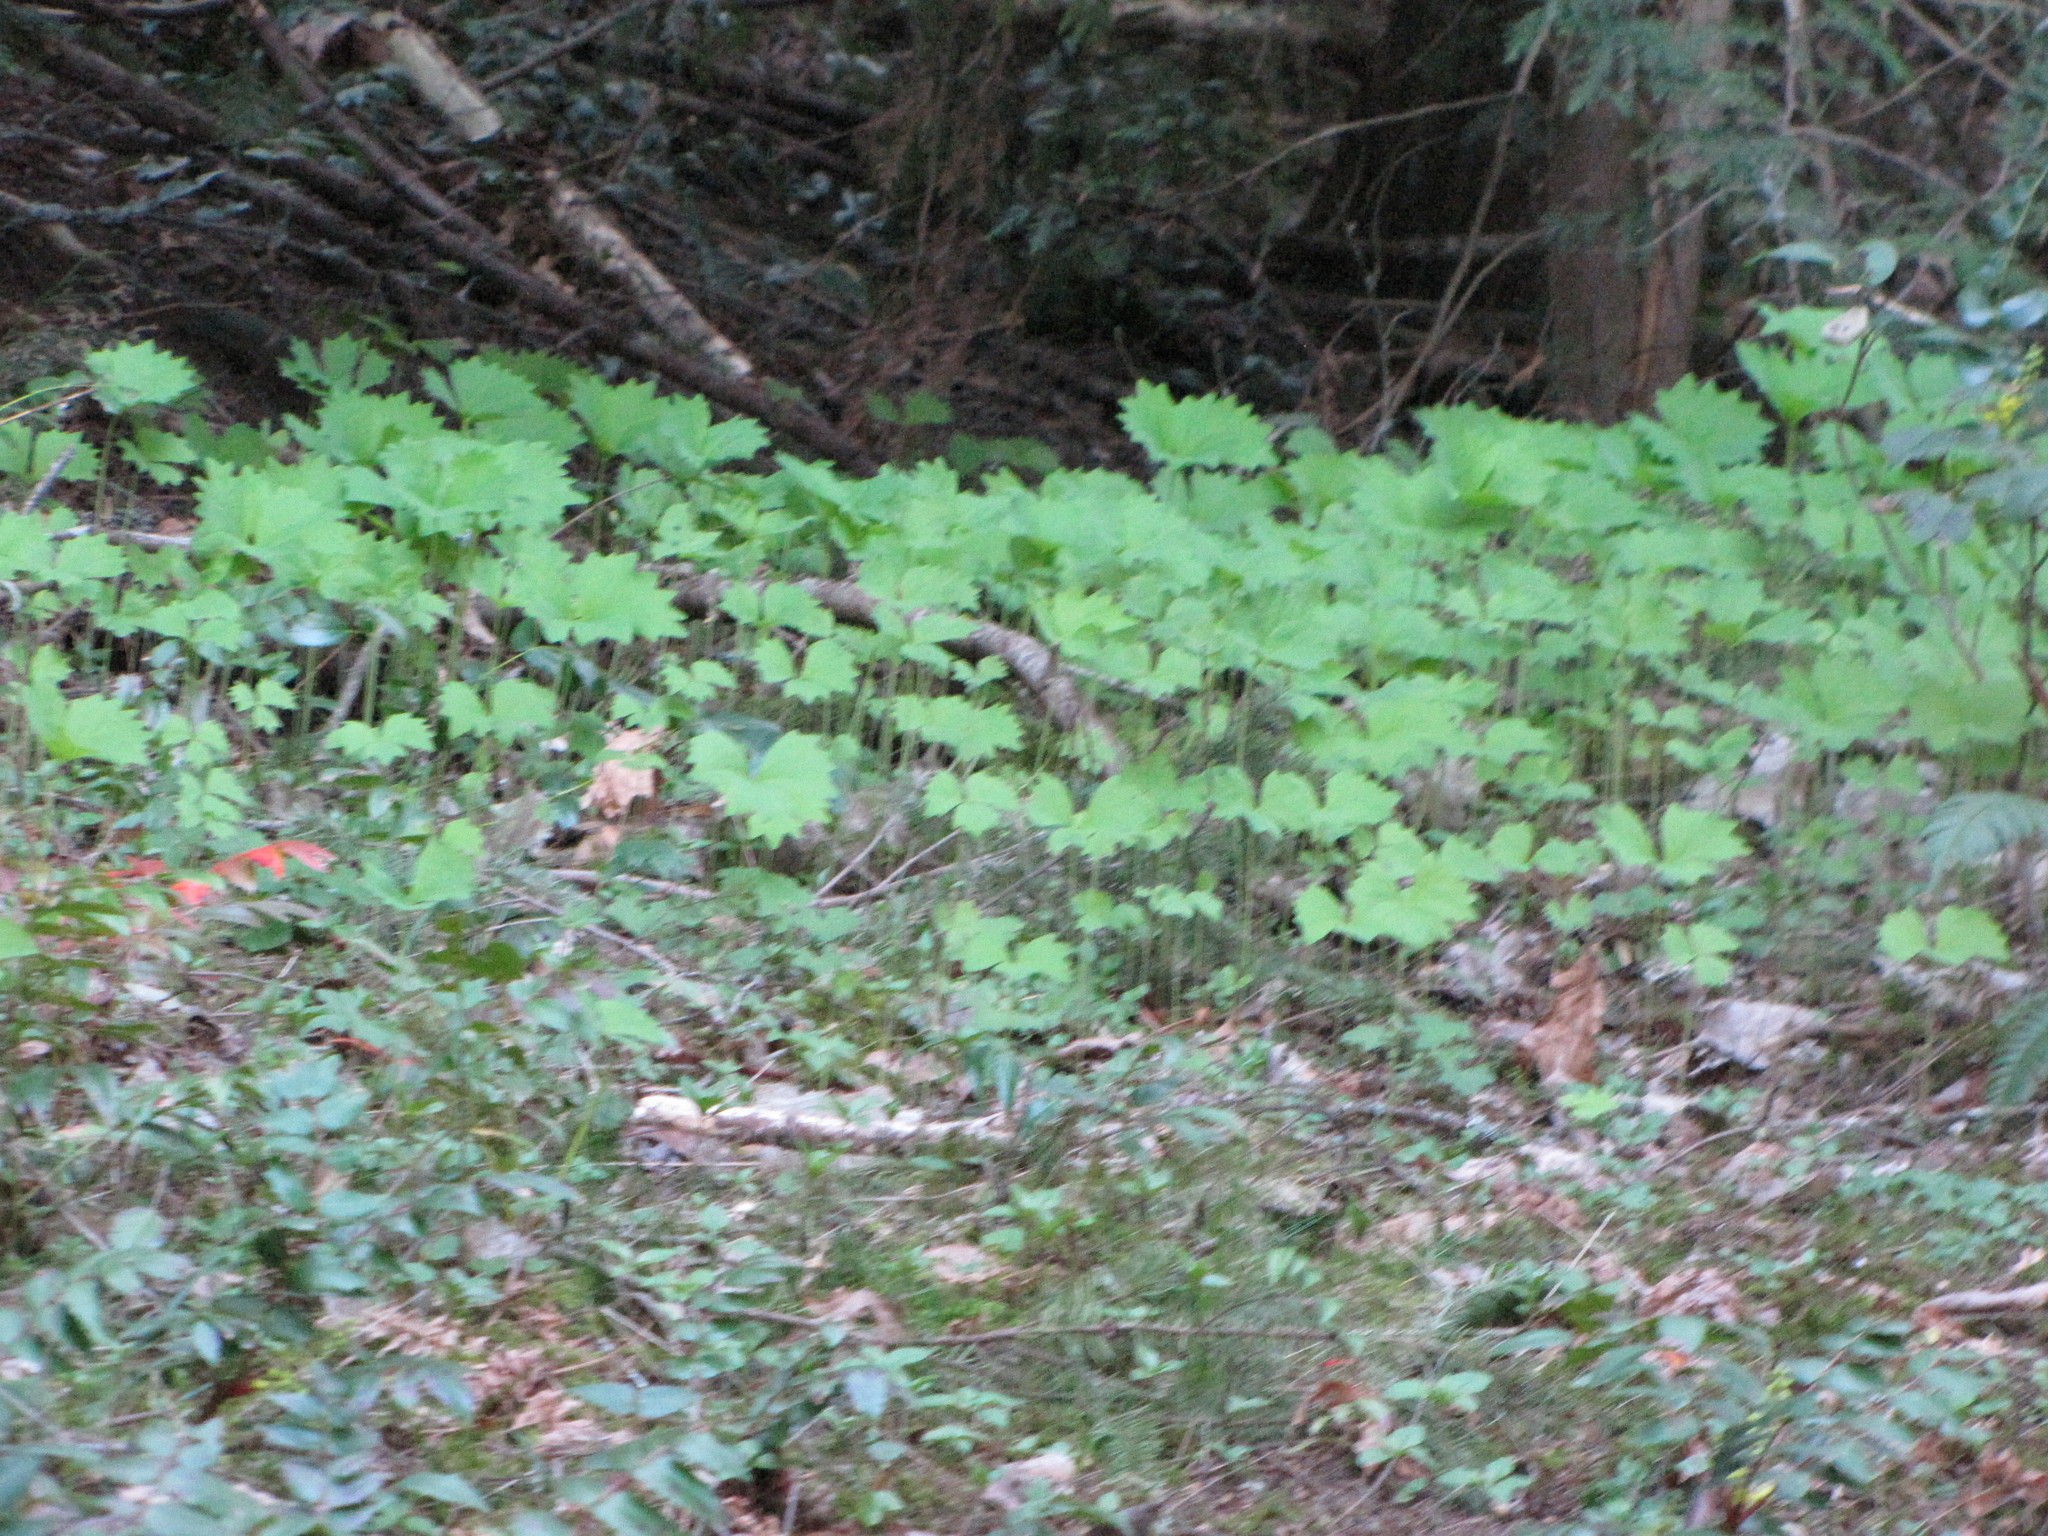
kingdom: Plantae
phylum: Tracheophyta
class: Magnoliopsida
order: Ranunculales
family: Berberidaceae
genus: Achlys
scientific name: Achlys triphylla
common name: Vanilla-leaf
